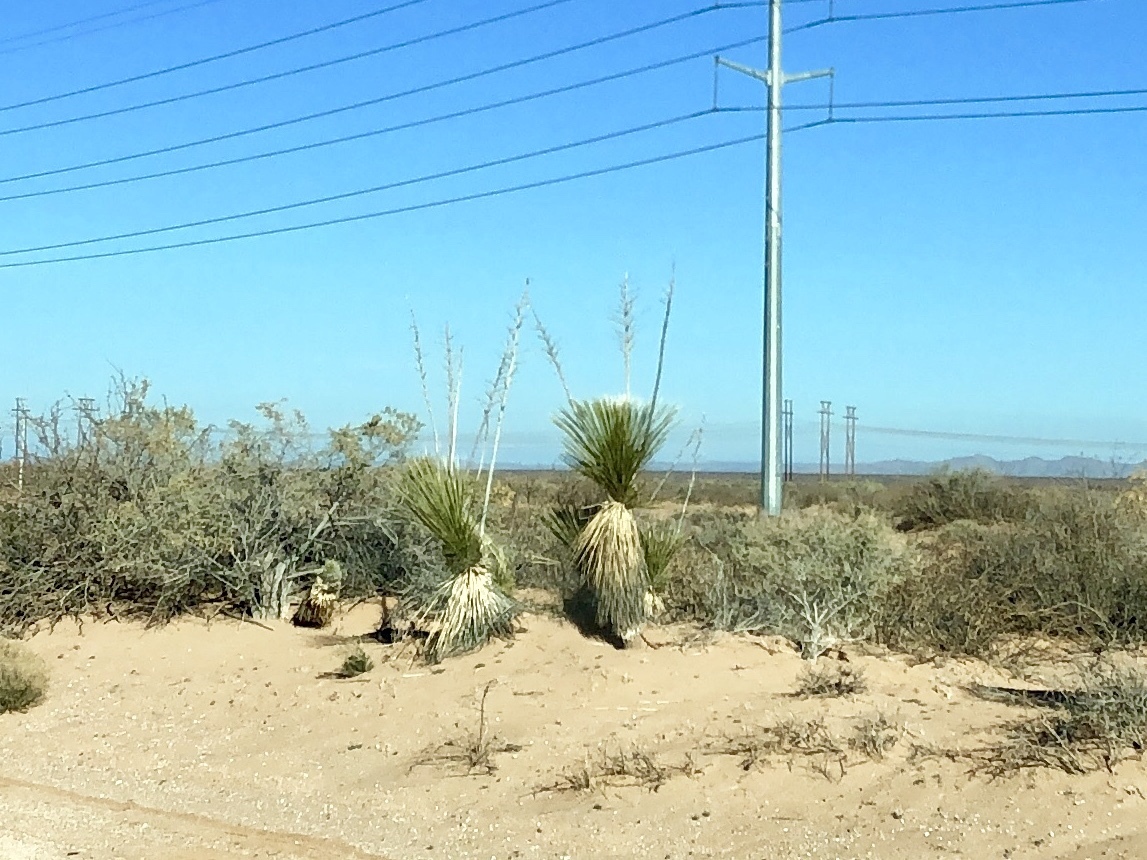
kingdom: Plantae
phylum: Tracheophyta
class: Liliopsida
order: Asparagales
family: Asparagaceae
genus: Yucca
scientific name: Yucca elata
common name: Palmella
